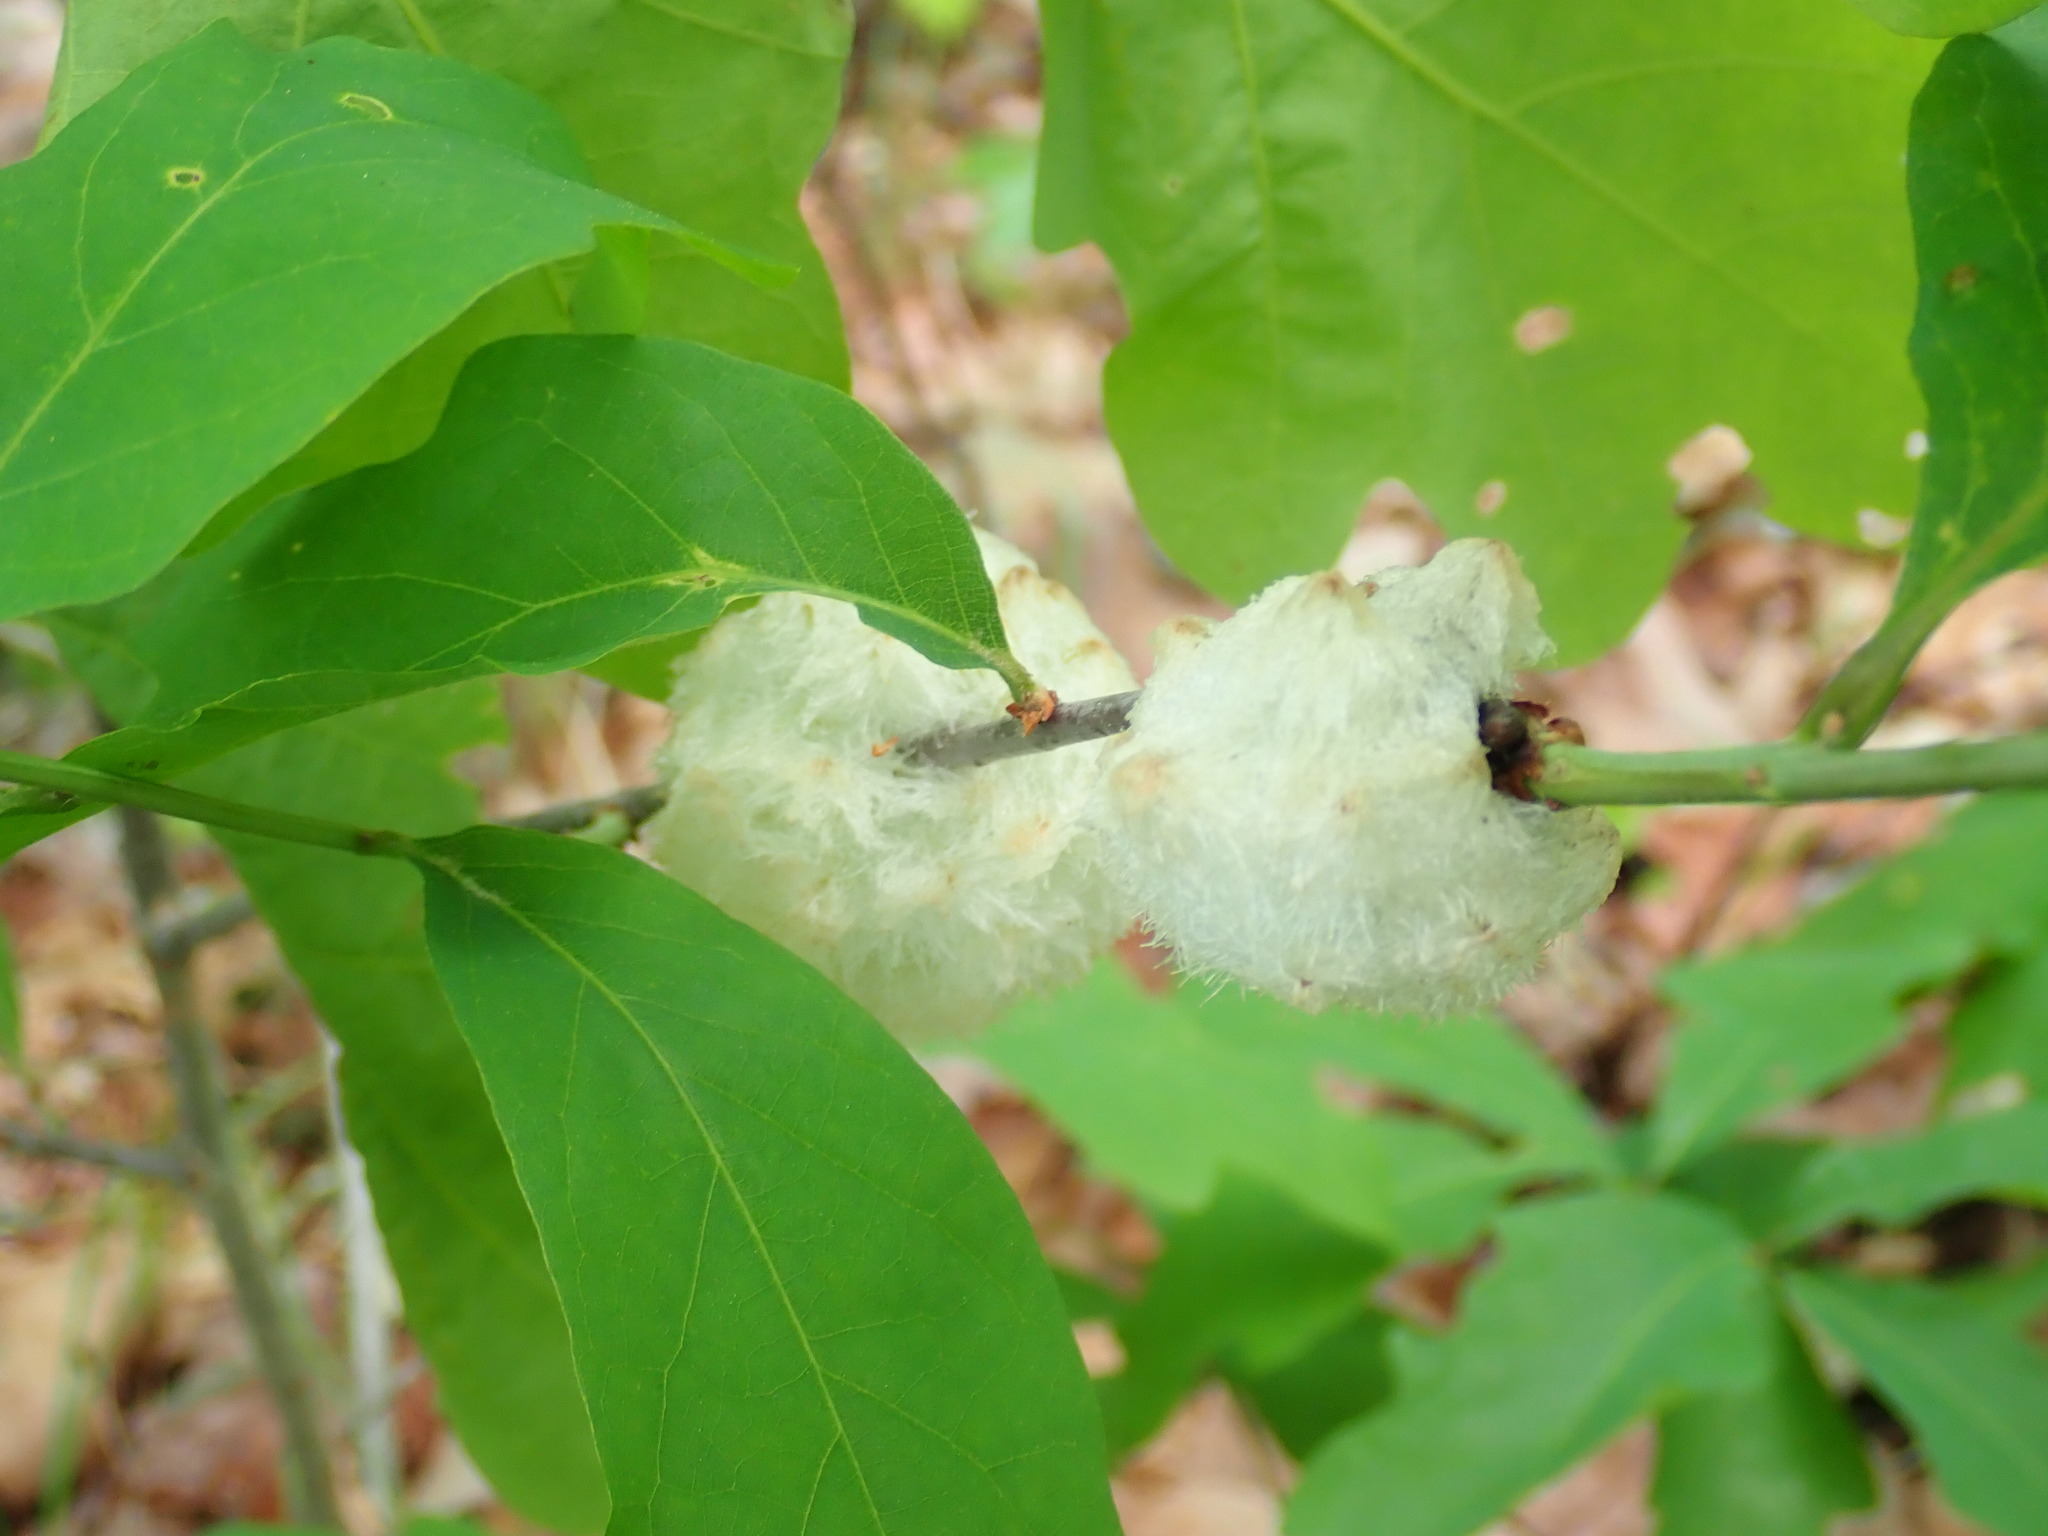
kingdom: Animalia
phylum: Arthropoda
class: Insecta
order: Hymenoptera
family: Cynipidae
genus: Callirhytis
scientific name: Callirhytis
